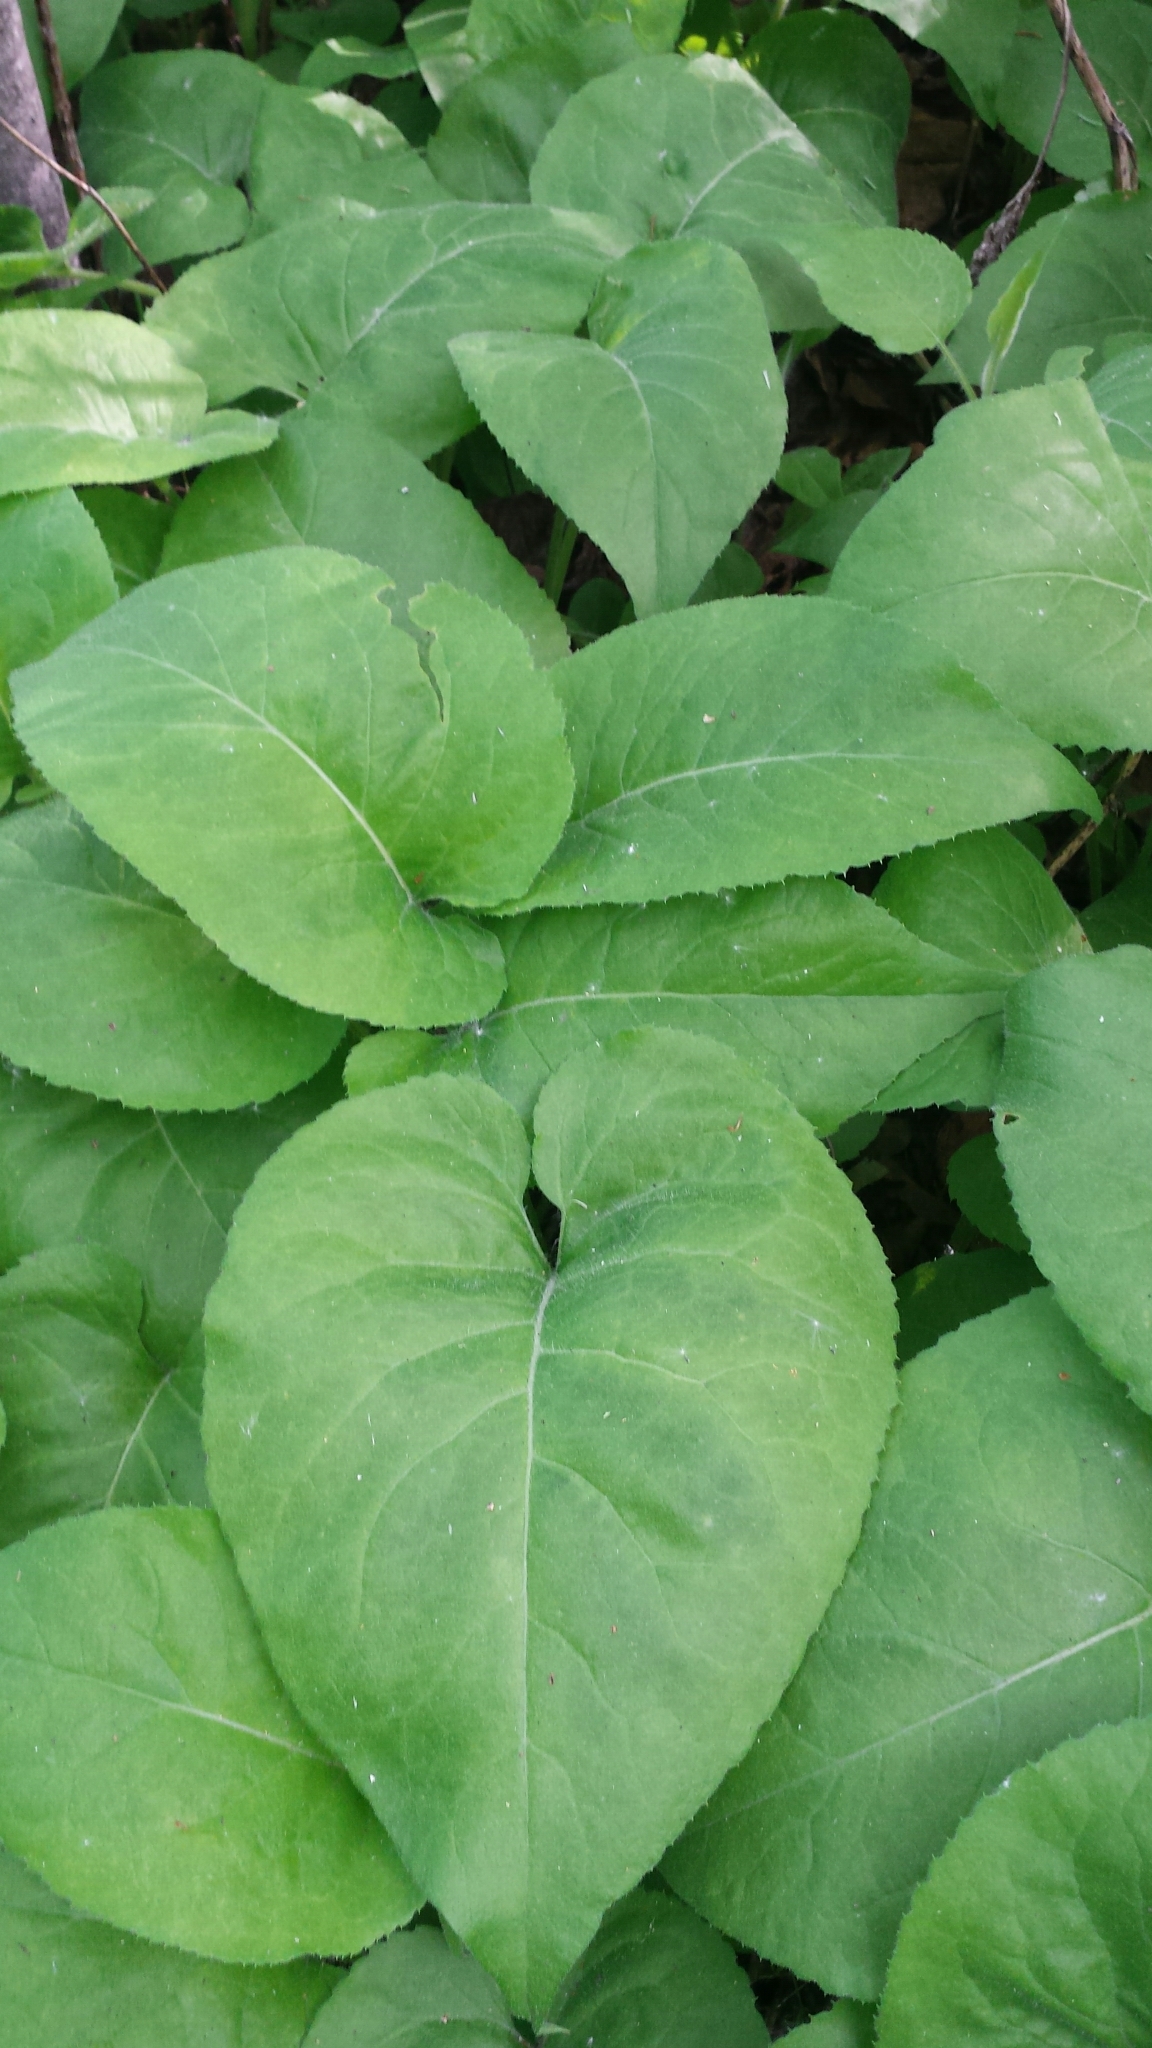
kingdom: Plantae
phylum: Tracheophyta
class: Magnoliopsida
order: Asterales
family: Asteraceae
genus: Eurybia
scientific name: Eurybia macrophylla
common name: Big-leaved aster
